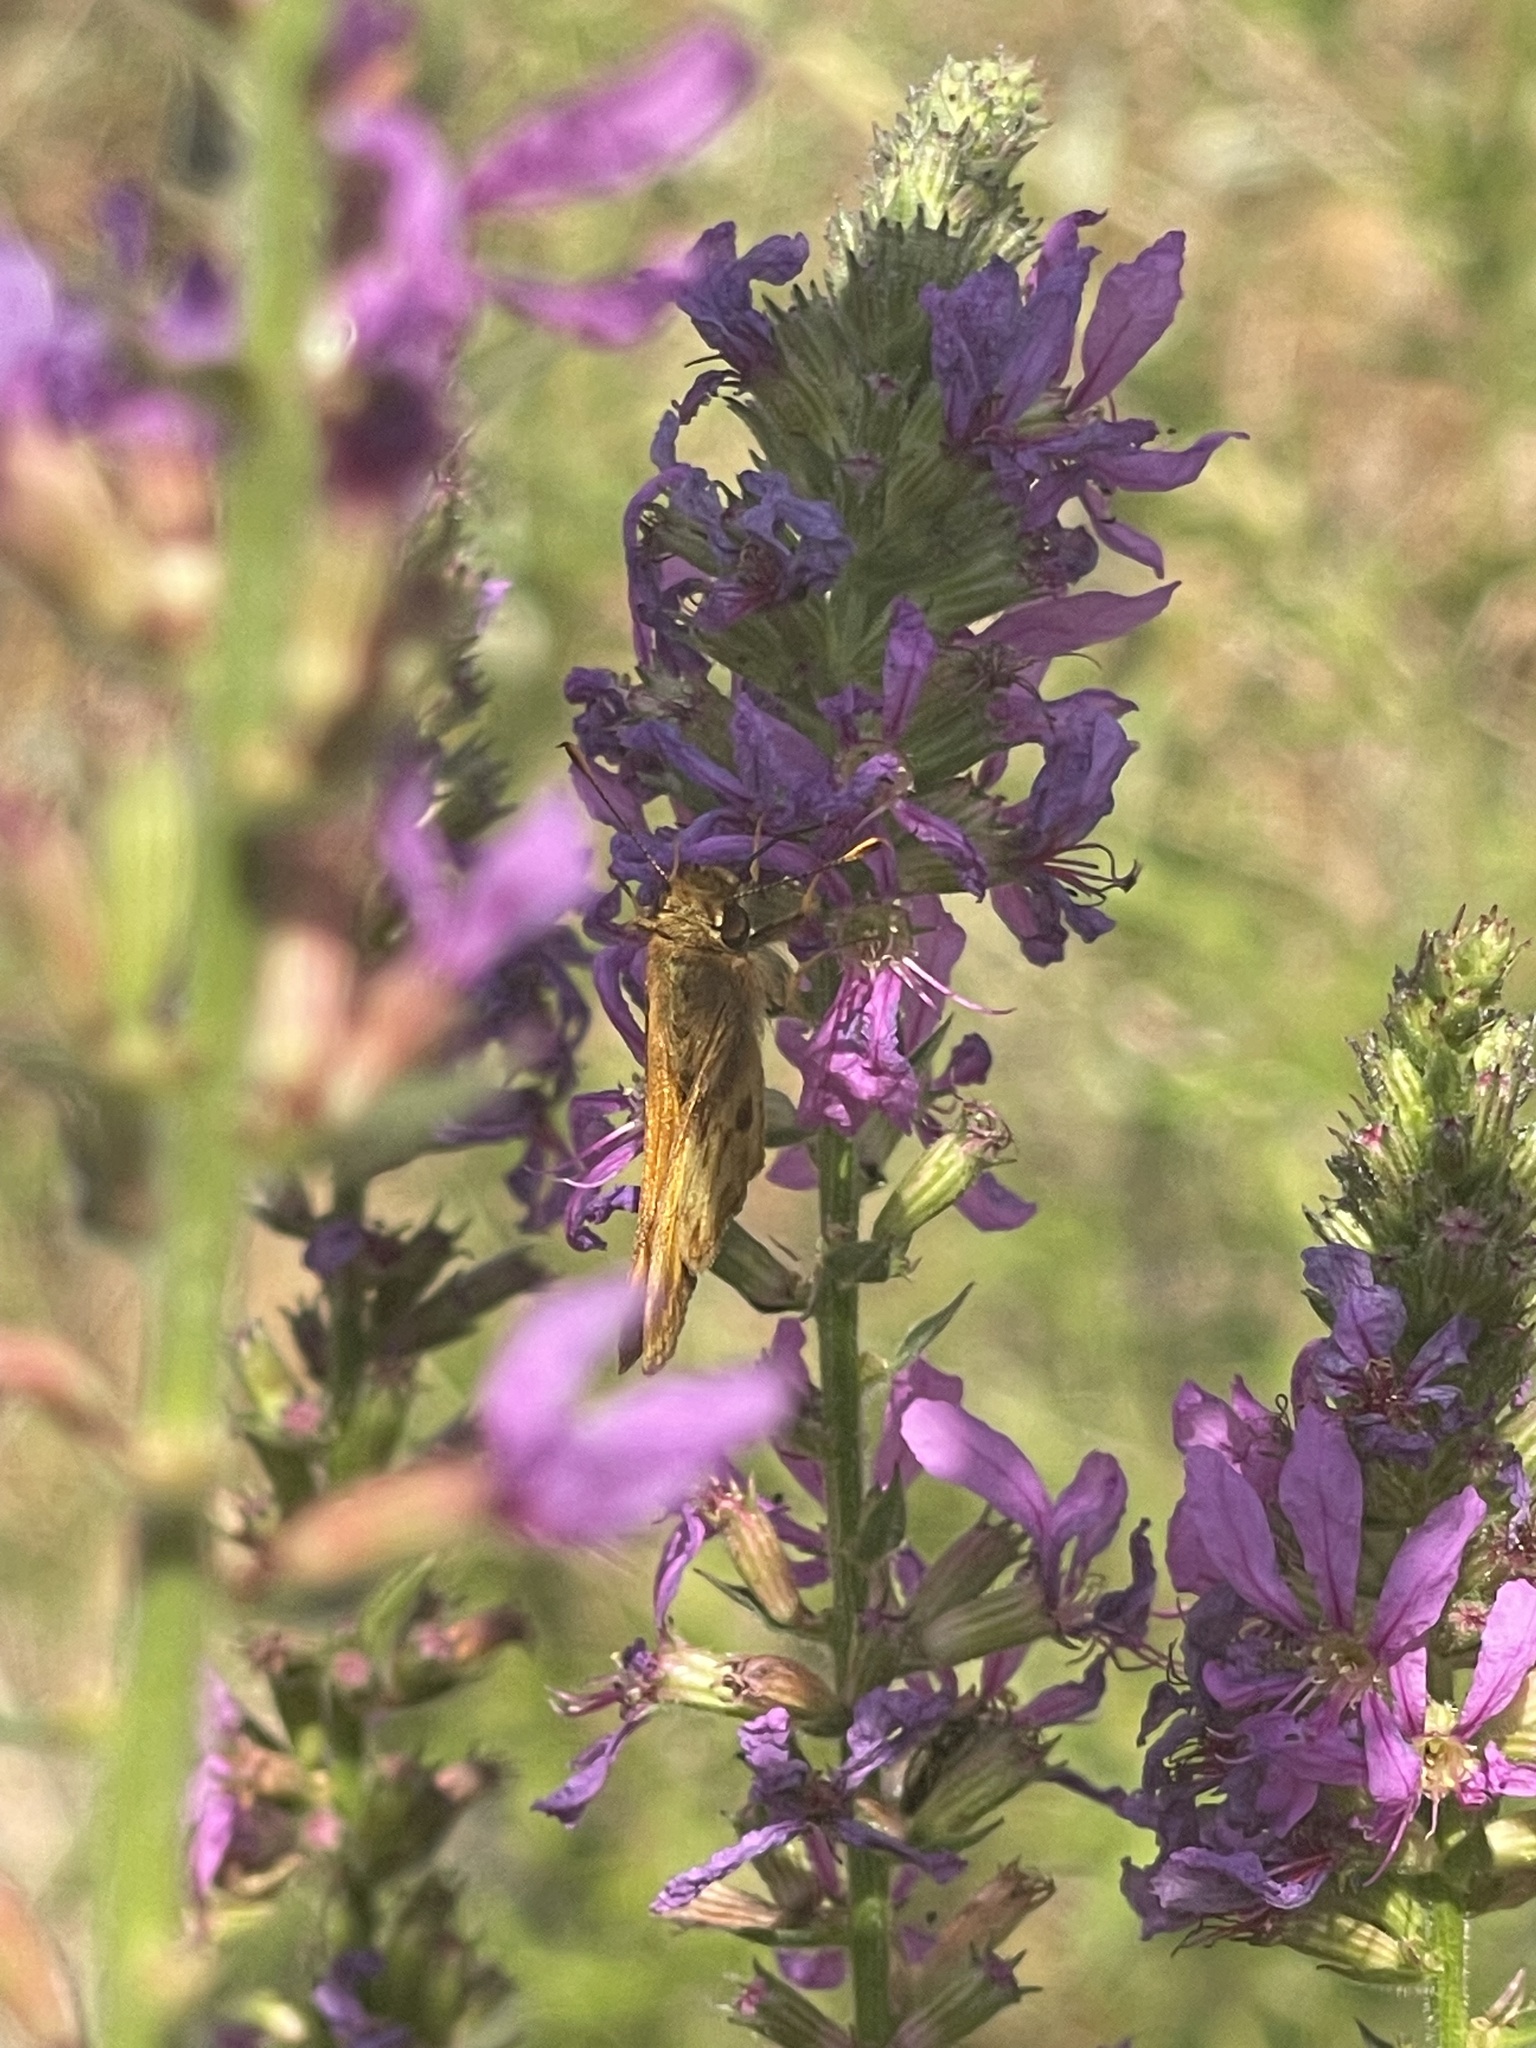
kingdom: Animalia
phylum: Arthropoda
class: Insecta
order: Lepidoptera
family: Hesperiidae
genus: Polites
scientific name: Polites coras
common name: Peck's skipper
